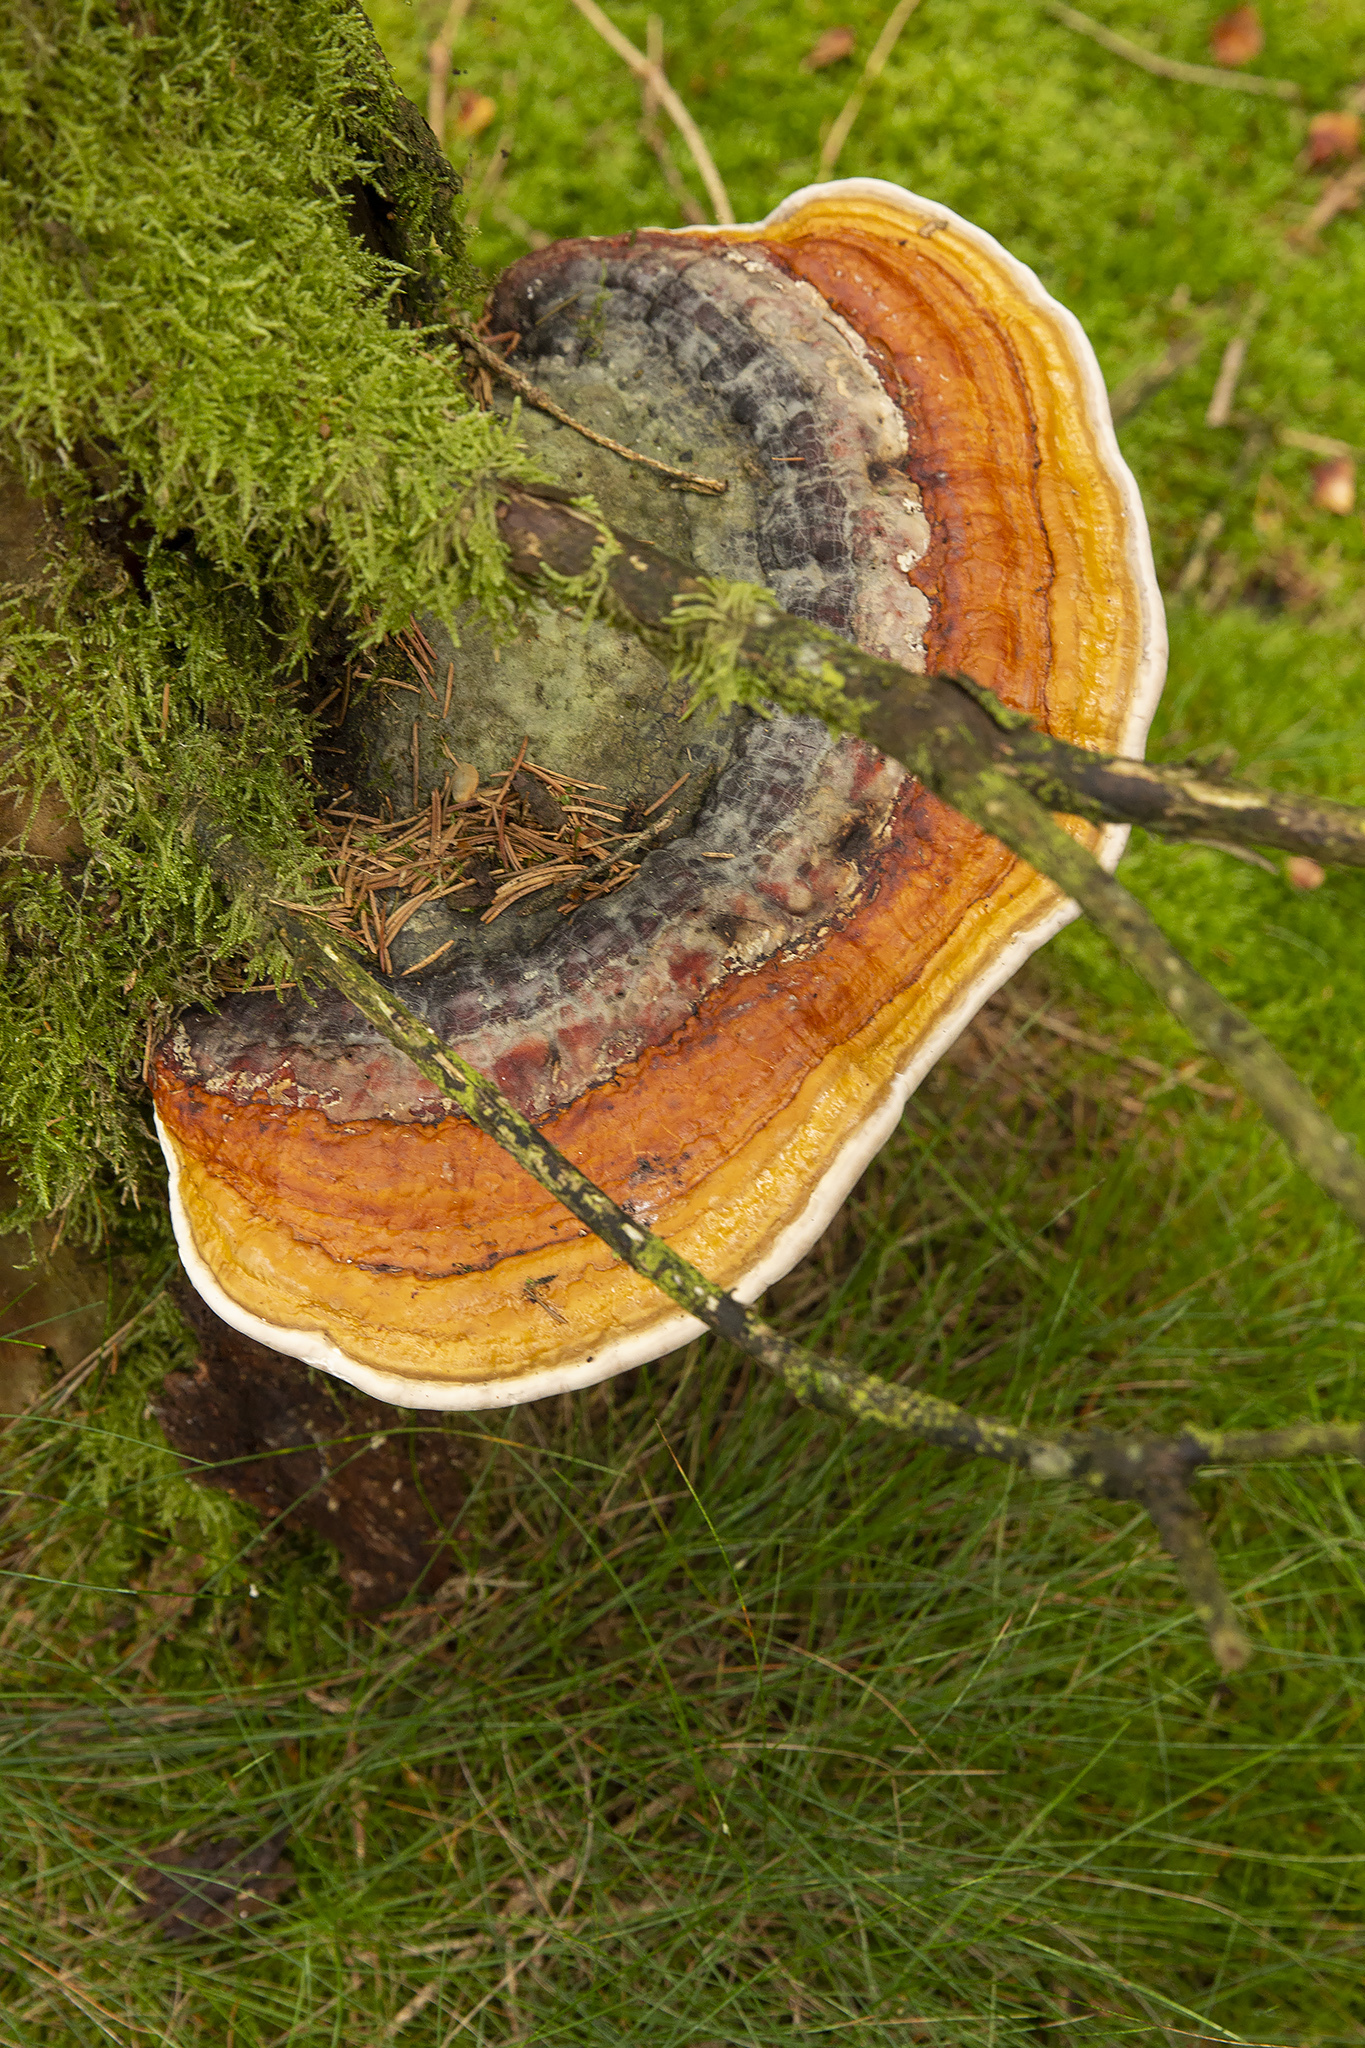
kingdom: Fungi
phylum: Basidiomycota
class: Agaricomycetes
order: Polyporales
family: Fomitopsidaceae
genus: Fomitopsis
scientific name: Fomitopsis pinicola
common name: Red-belted bracket
